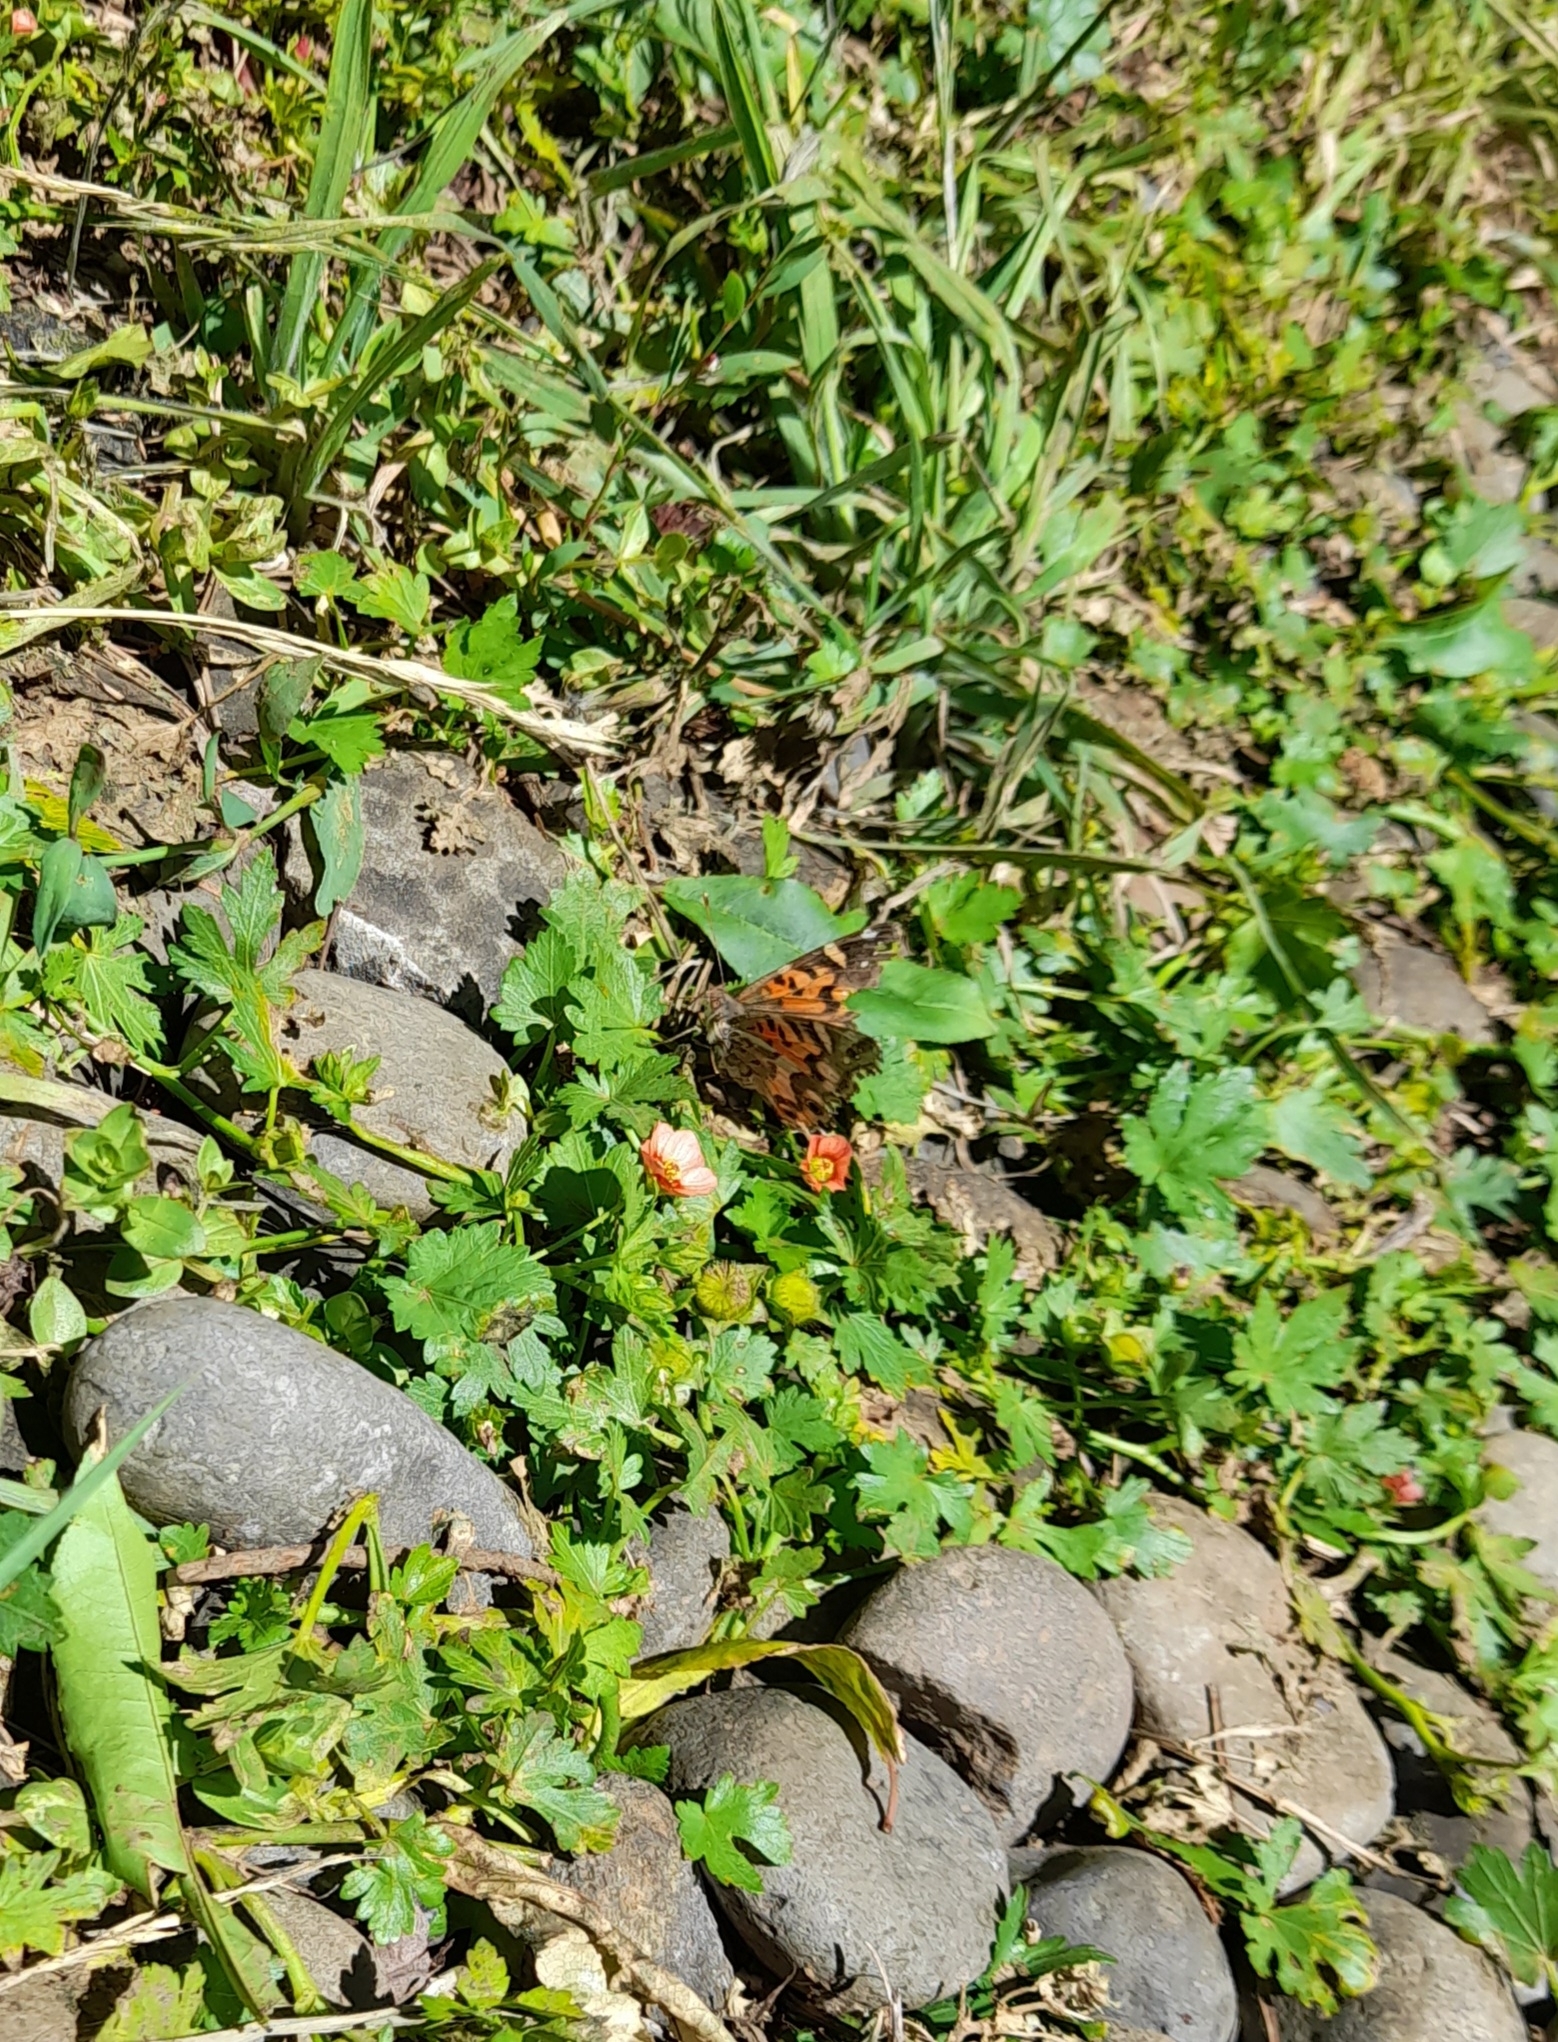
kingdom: Animalia
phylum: Arthropoda
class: Insecta
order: Lepidoptera
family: Nymphalidae
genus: Vanessa
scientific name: Vanessa terpsichore
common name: Chilean lady
